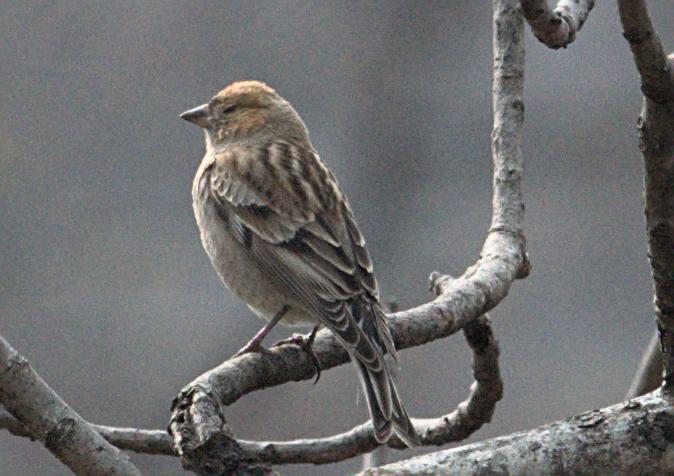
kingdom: Animalia
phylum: Chordata
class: Aves
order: Passeriformes
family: Fringillidae
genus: Leucosticte
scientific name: Leucosticte nemoricola
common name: Plain mountain finch
